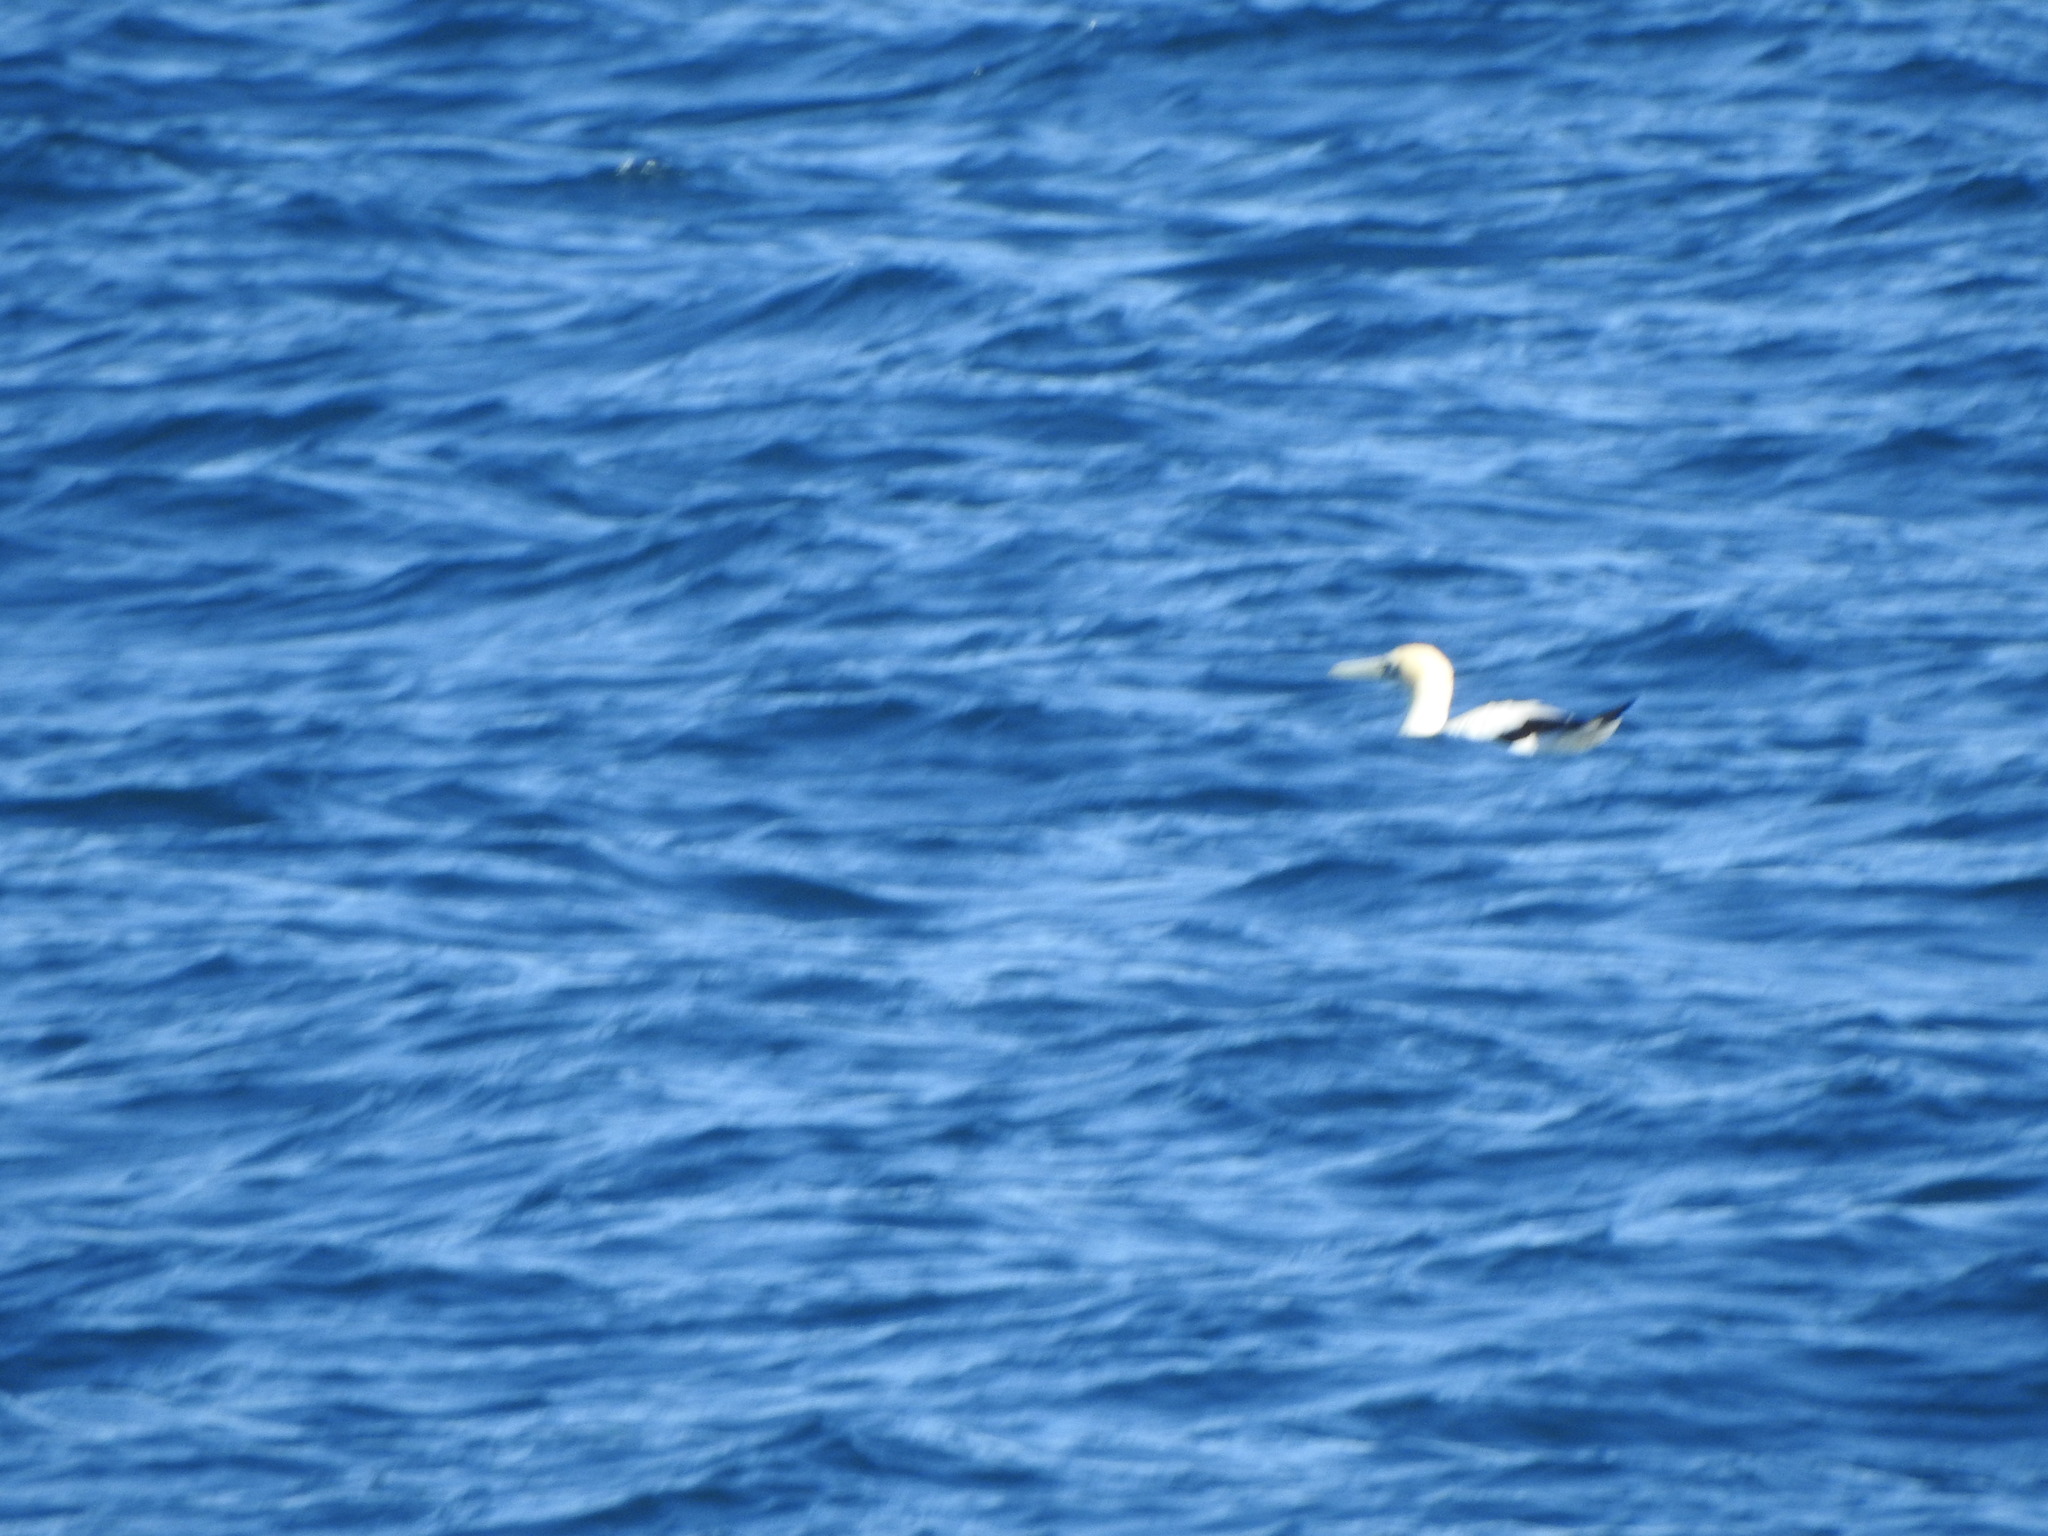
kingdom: Animalia
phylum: Chordata
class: Aves
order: Suliformes
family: Sulidae
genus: Morus
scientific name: Morus serrator
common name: Australasian gannet
